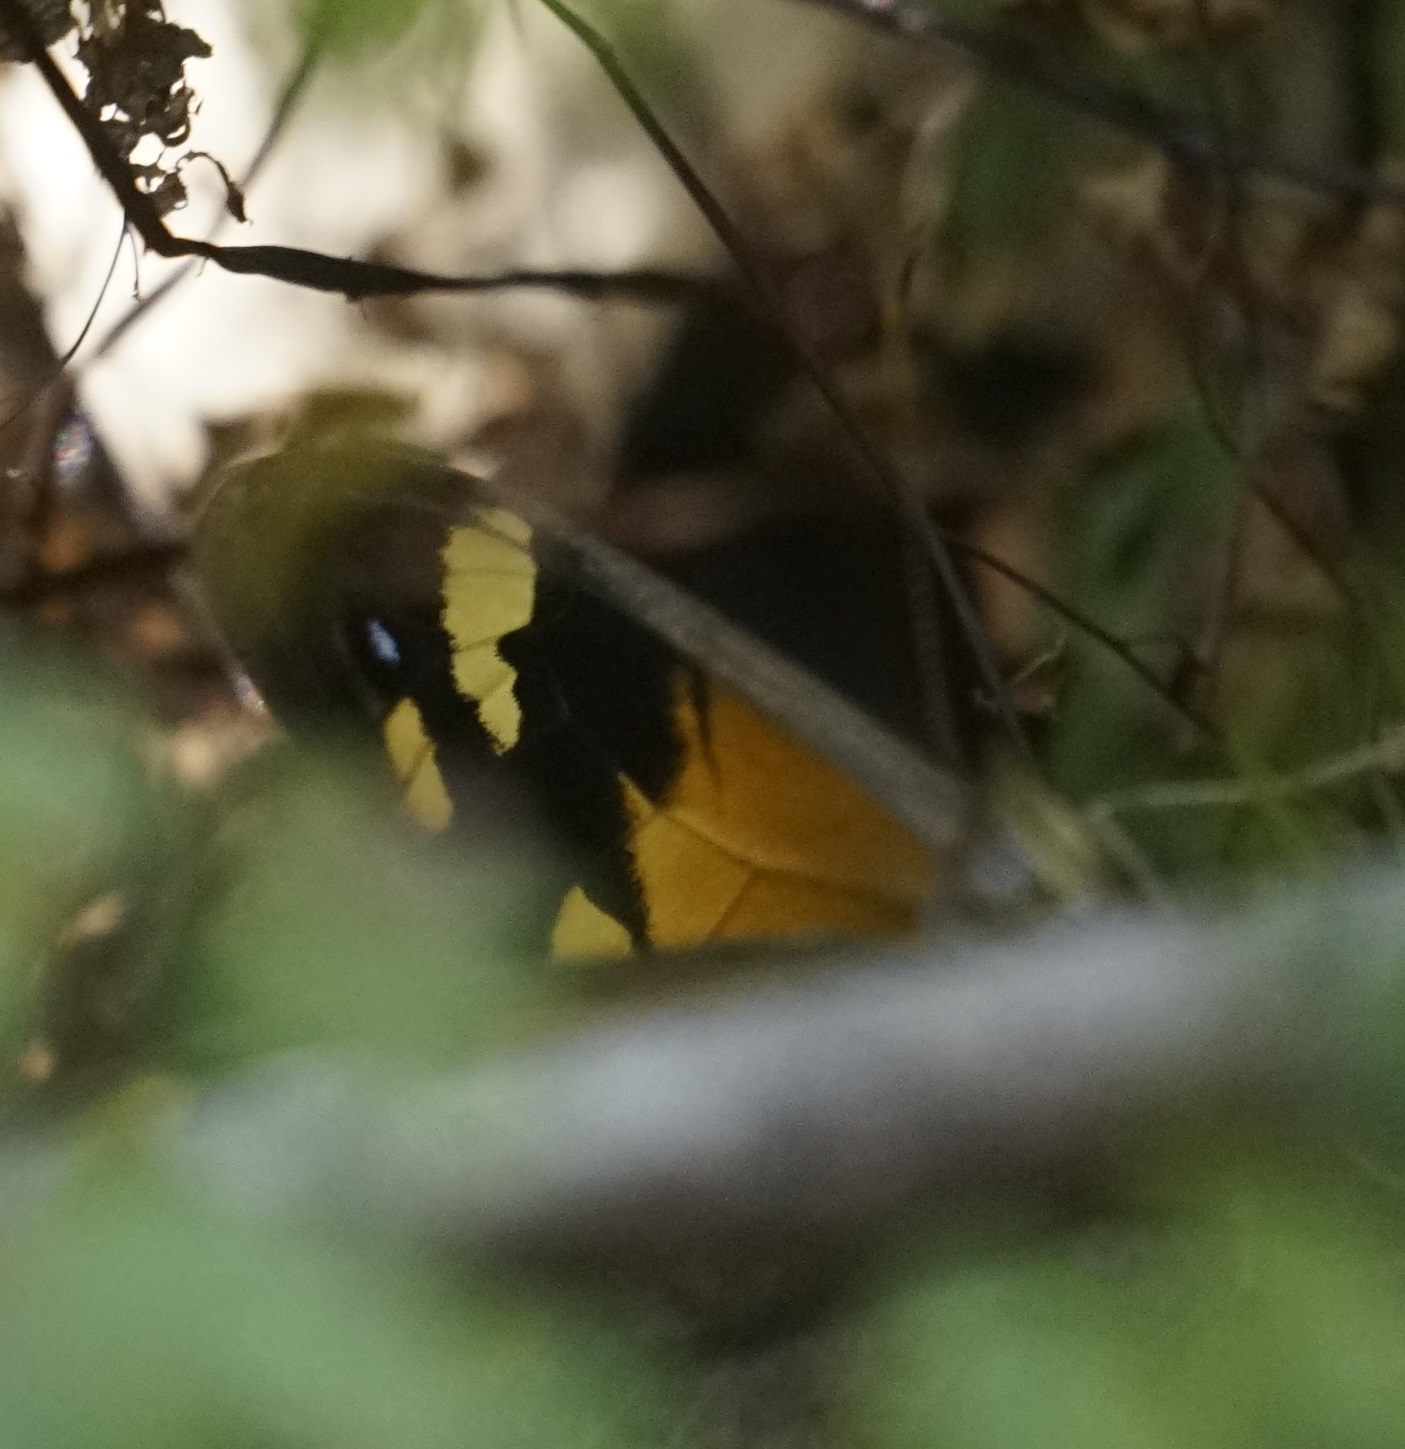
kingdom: Animalia
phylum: Arthropoda
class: Insecta
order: Lepidoptera
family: Nymphalidae
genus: Heteronympha
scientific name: Heteronympha merope
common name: Common brown
